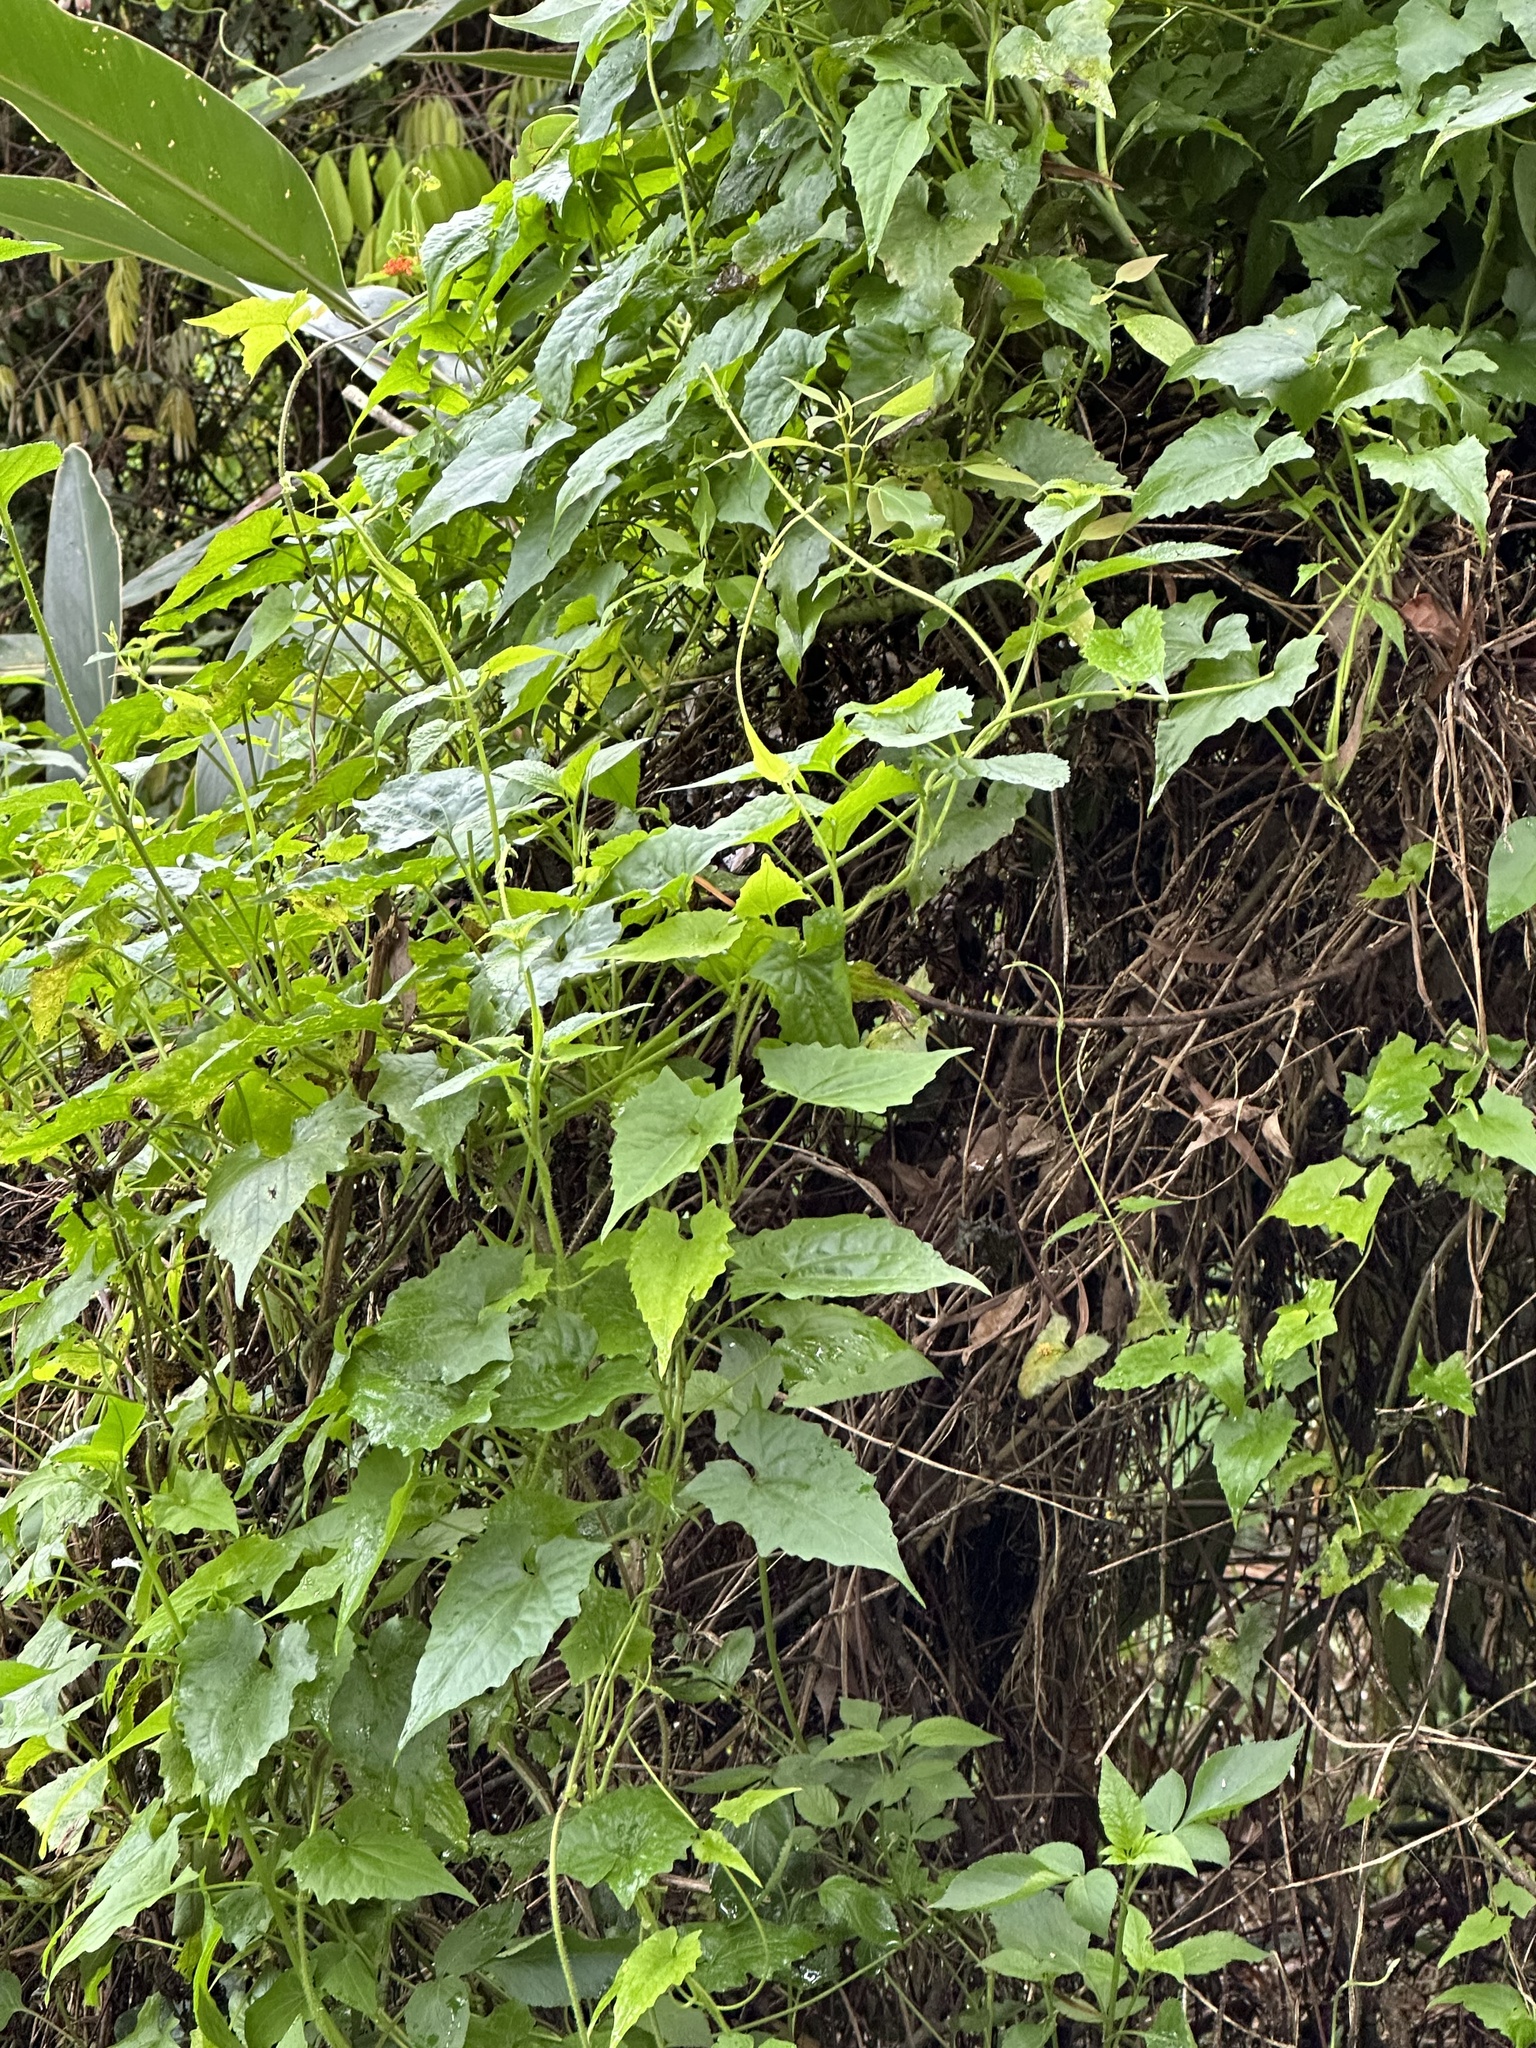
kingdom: Plantae
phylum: Tracheophyta
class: Magnoliopsida
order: Asterales
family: Asteraceae
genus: Mikania
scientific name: Mikania micrantha
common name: Mile-a-minute
